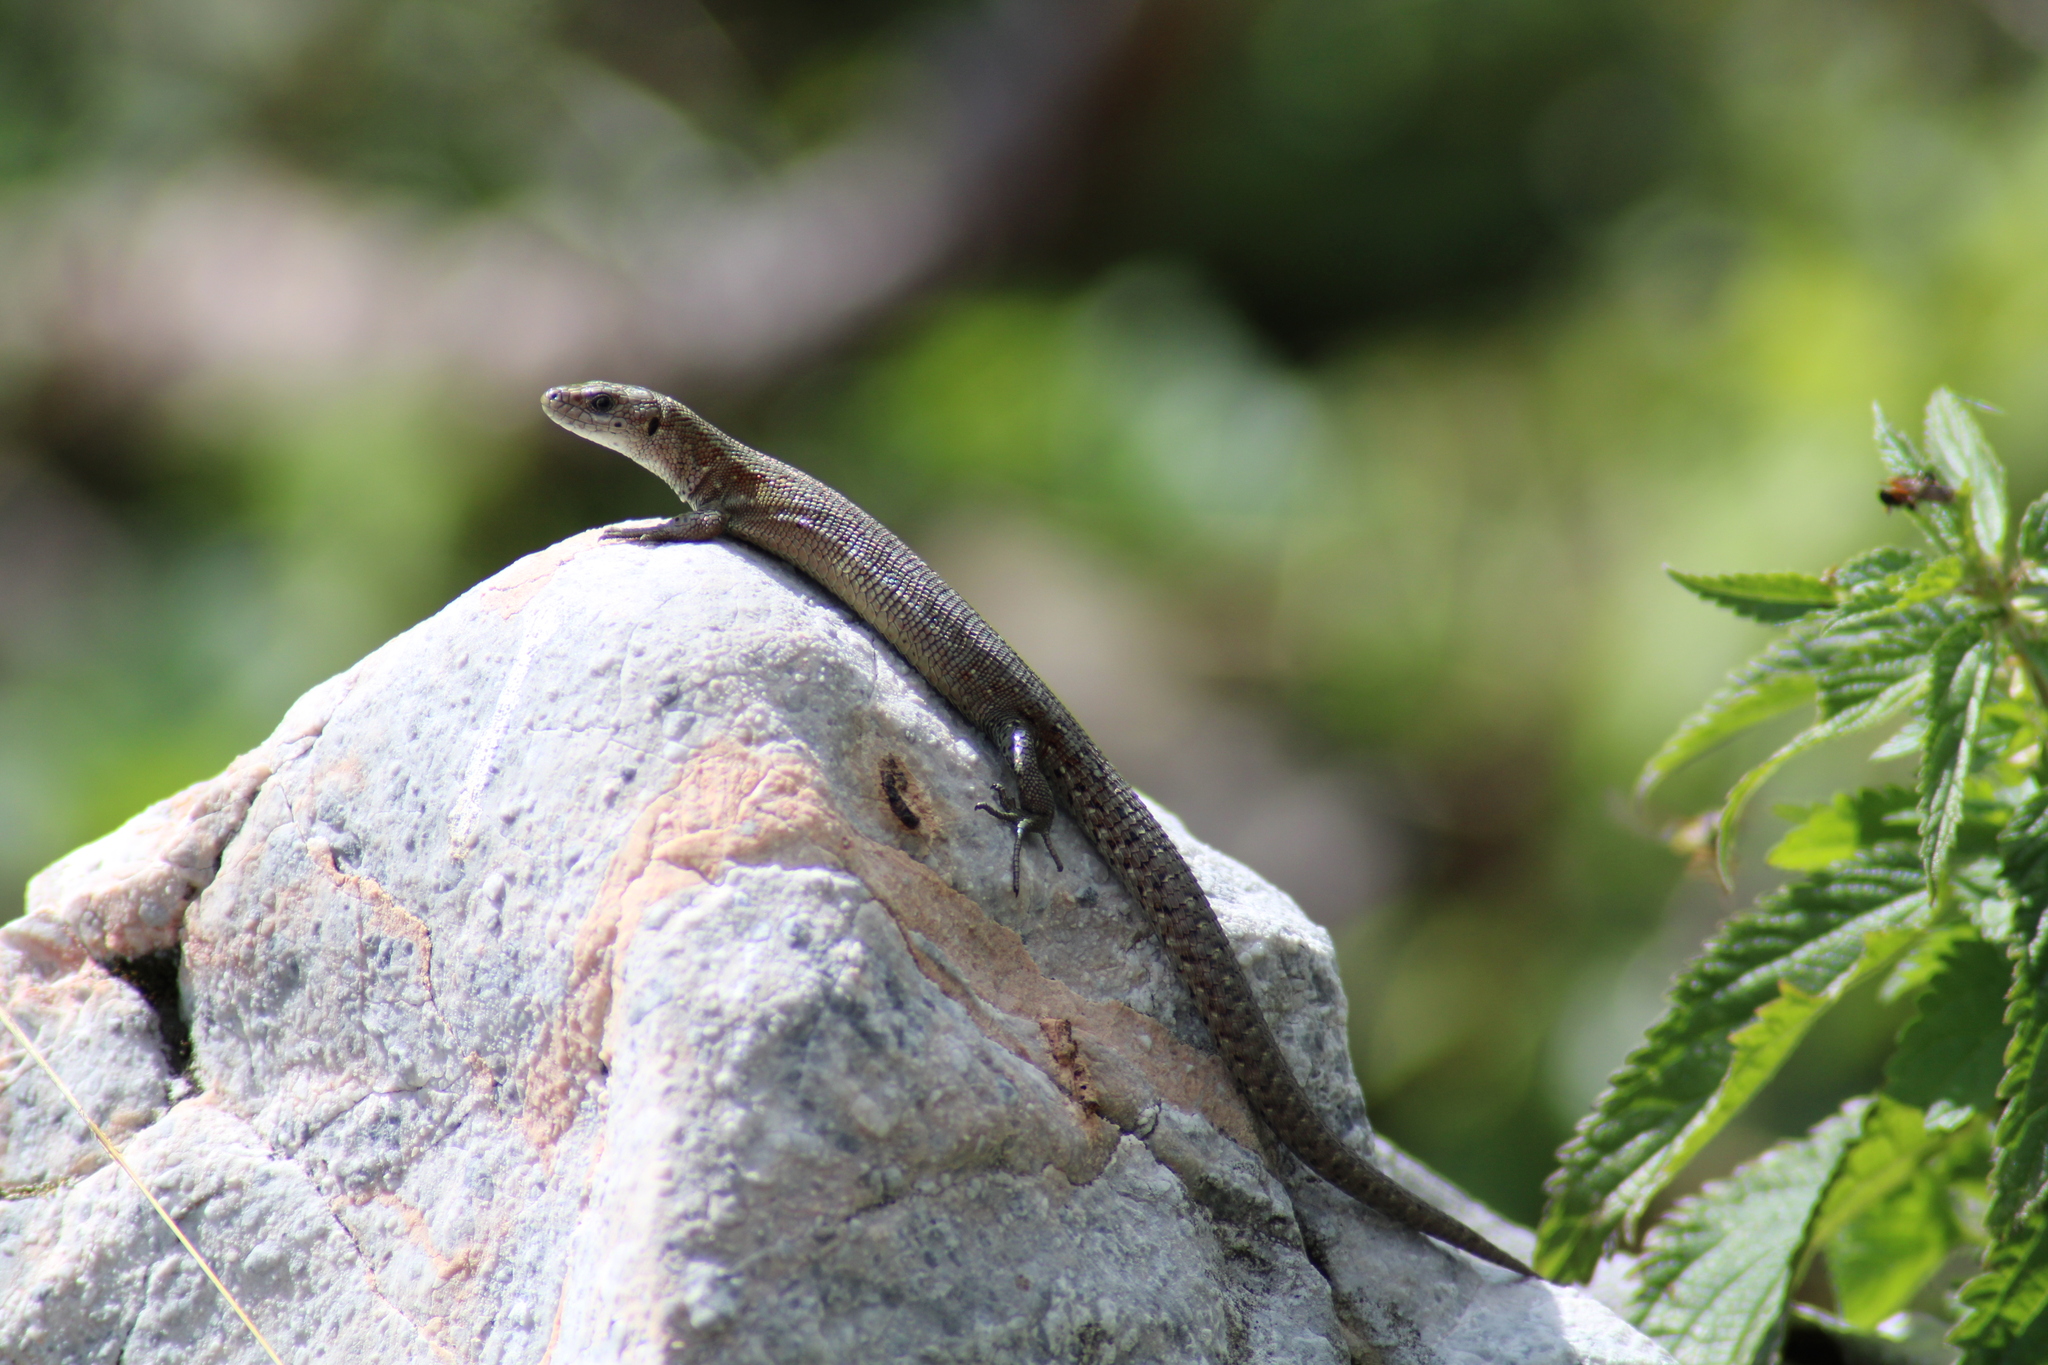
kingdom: Animalia
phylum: Chordata
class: Squamata
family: Lacertidae
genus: Zootoca
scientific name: Zootoca vivipara
